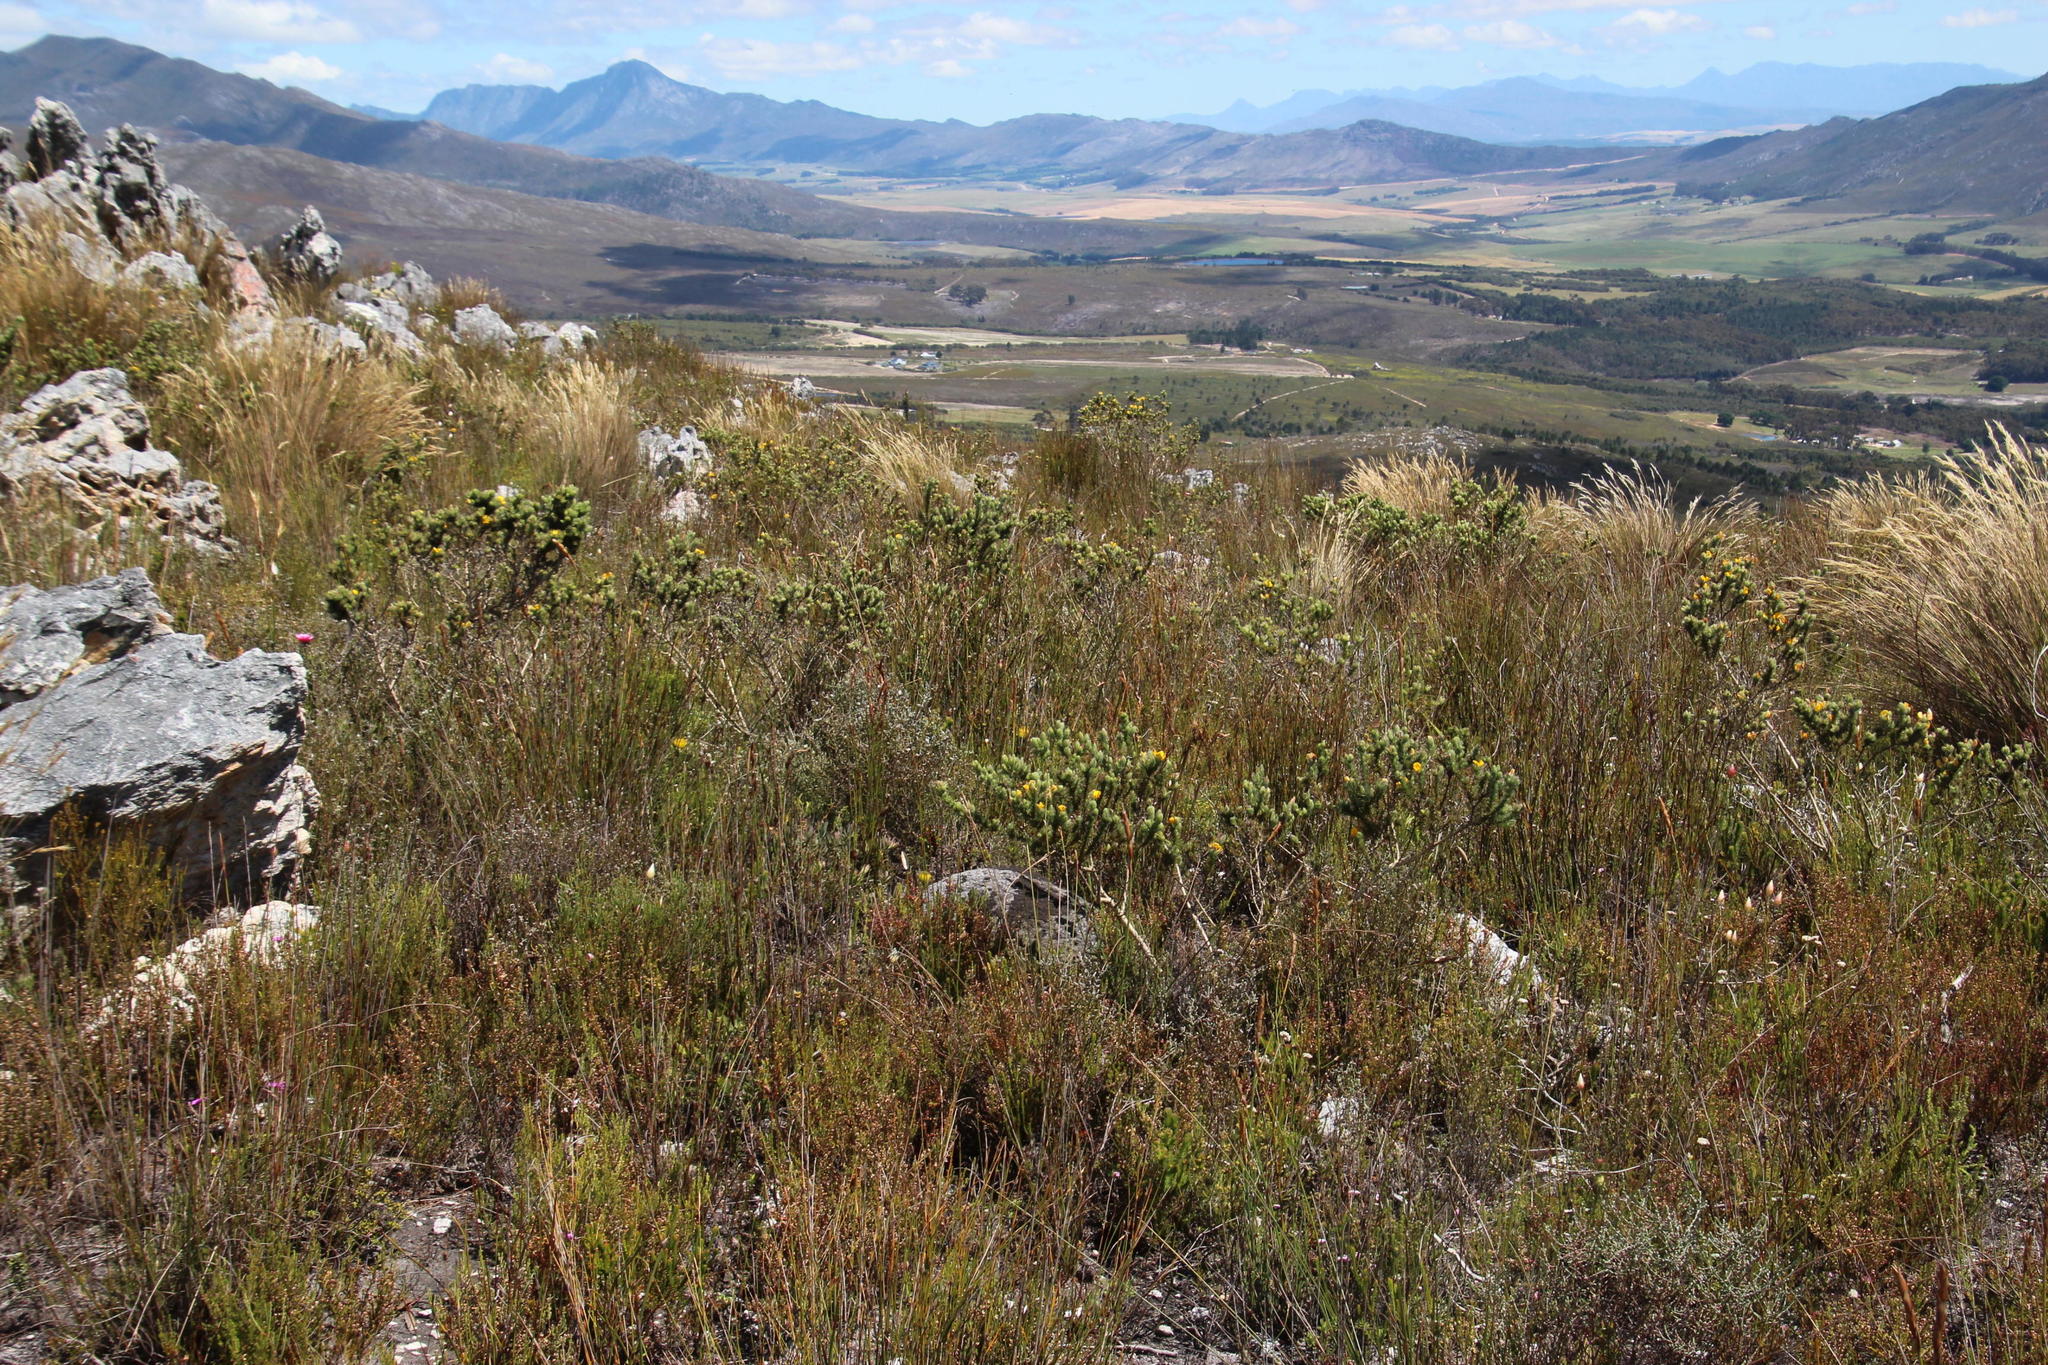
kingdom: Plantae
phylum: Tracheophyta
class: Magnoliopsida
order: Fabales
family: Fabaceae
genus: Aspalathus
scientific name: Aspalathus ciliaris
